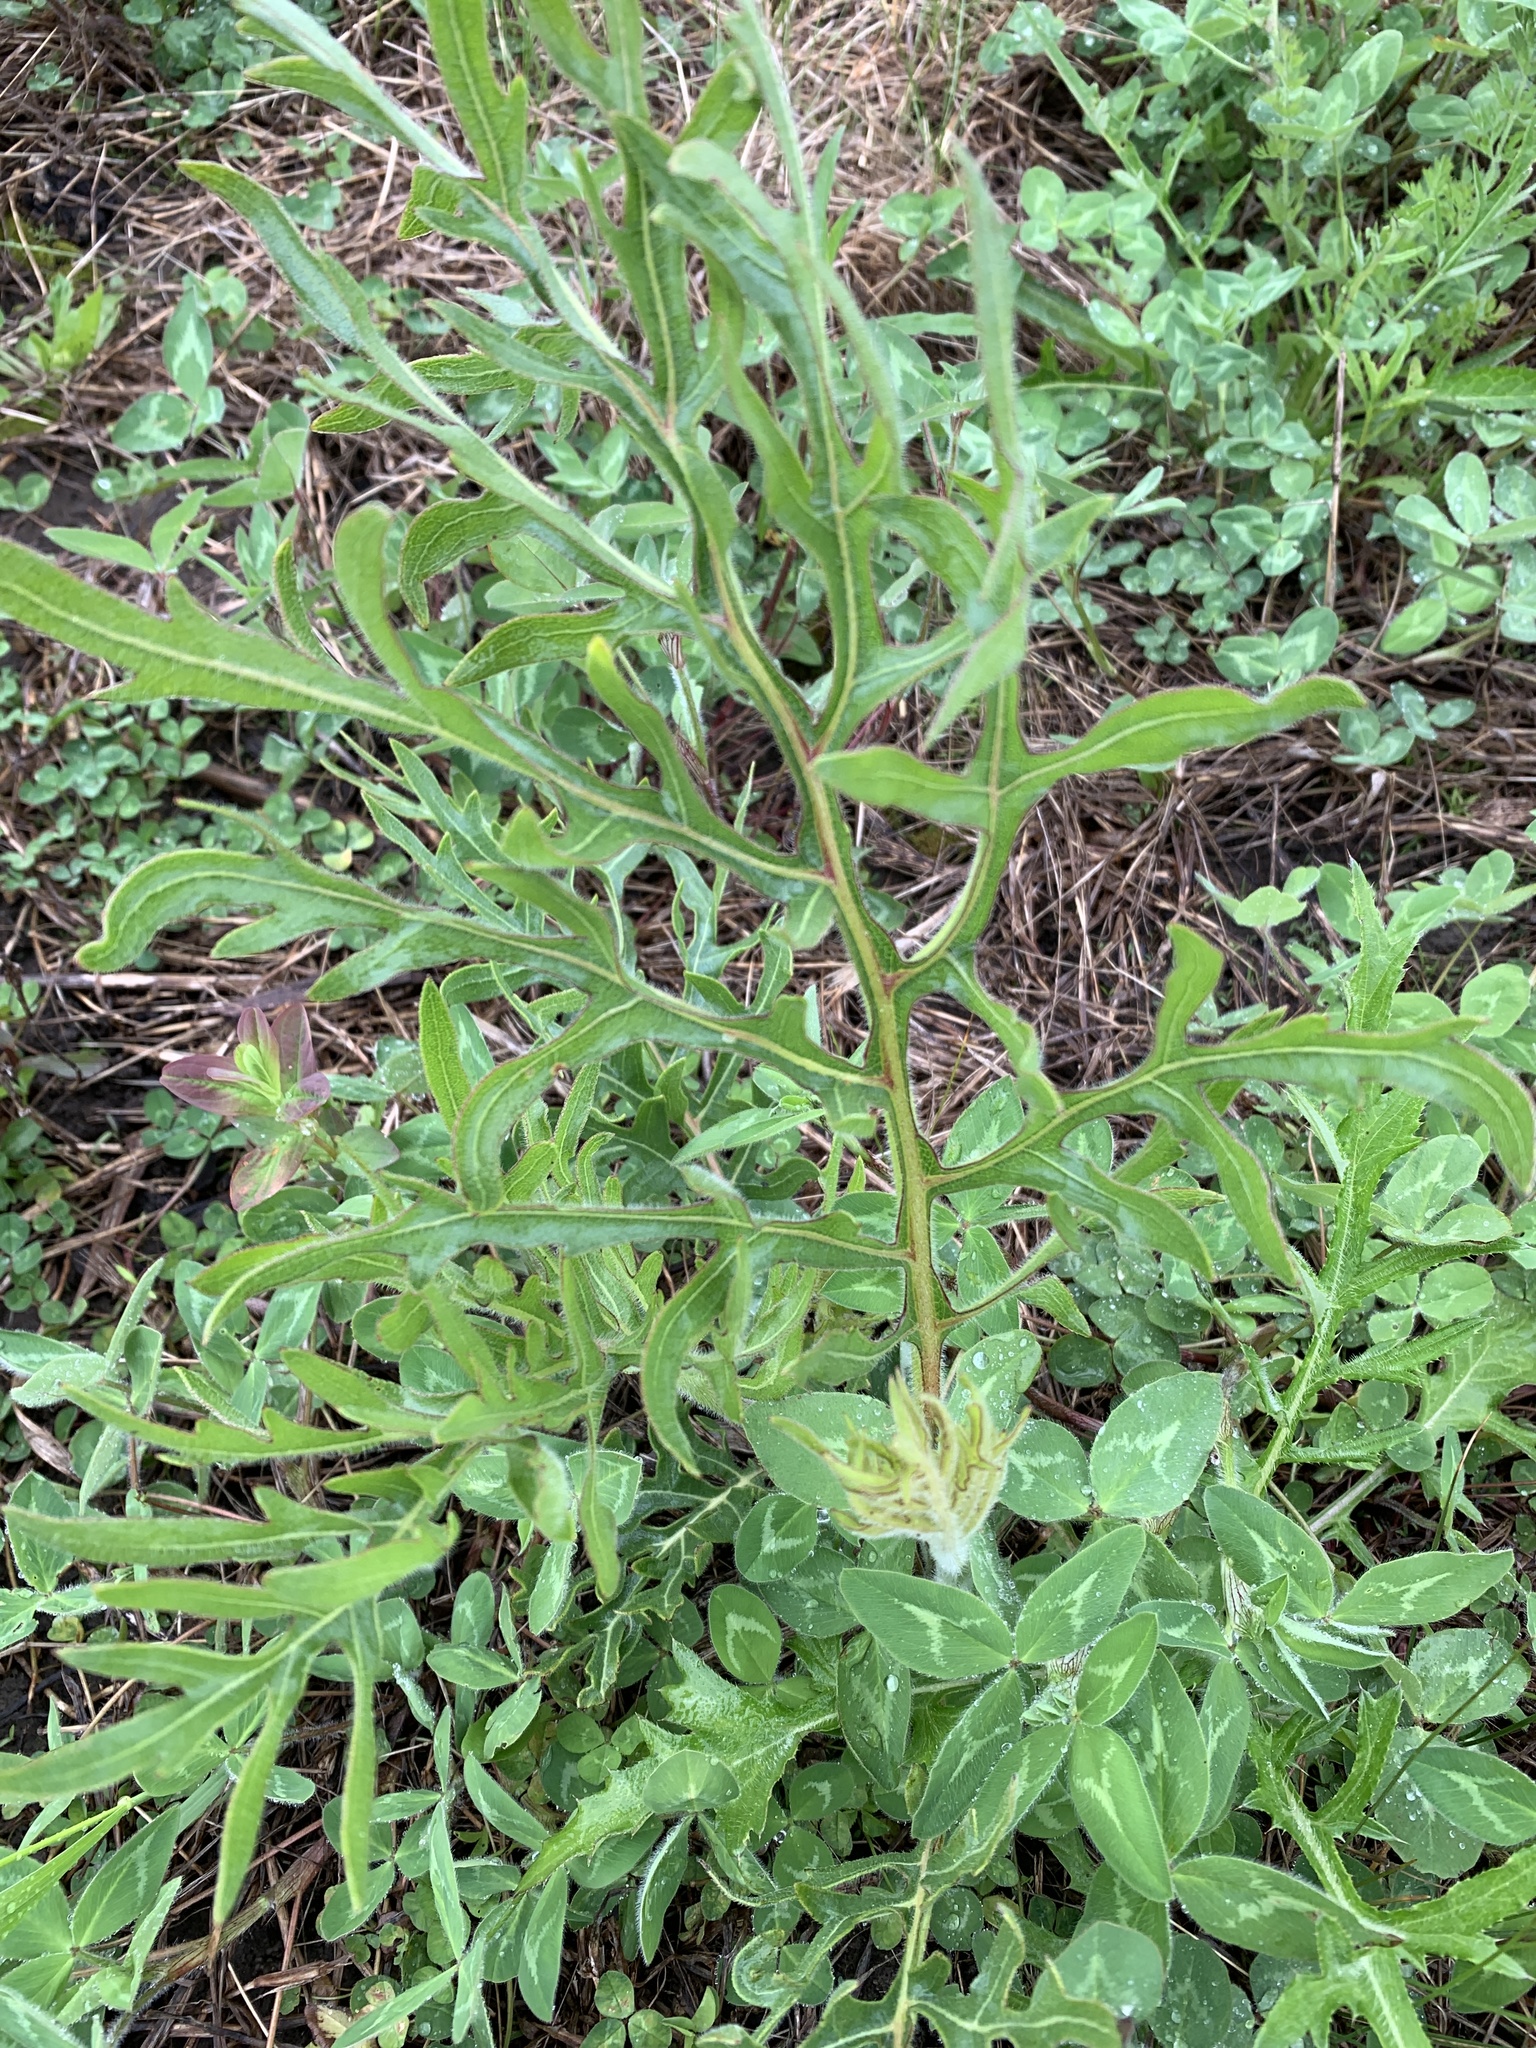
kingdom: Plantae
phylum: Tracheophyta
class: Magnoliopsida
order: Asterales
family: Asteraceae
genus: Silphium
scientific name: Silphium laciniatum
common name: Polarplant
